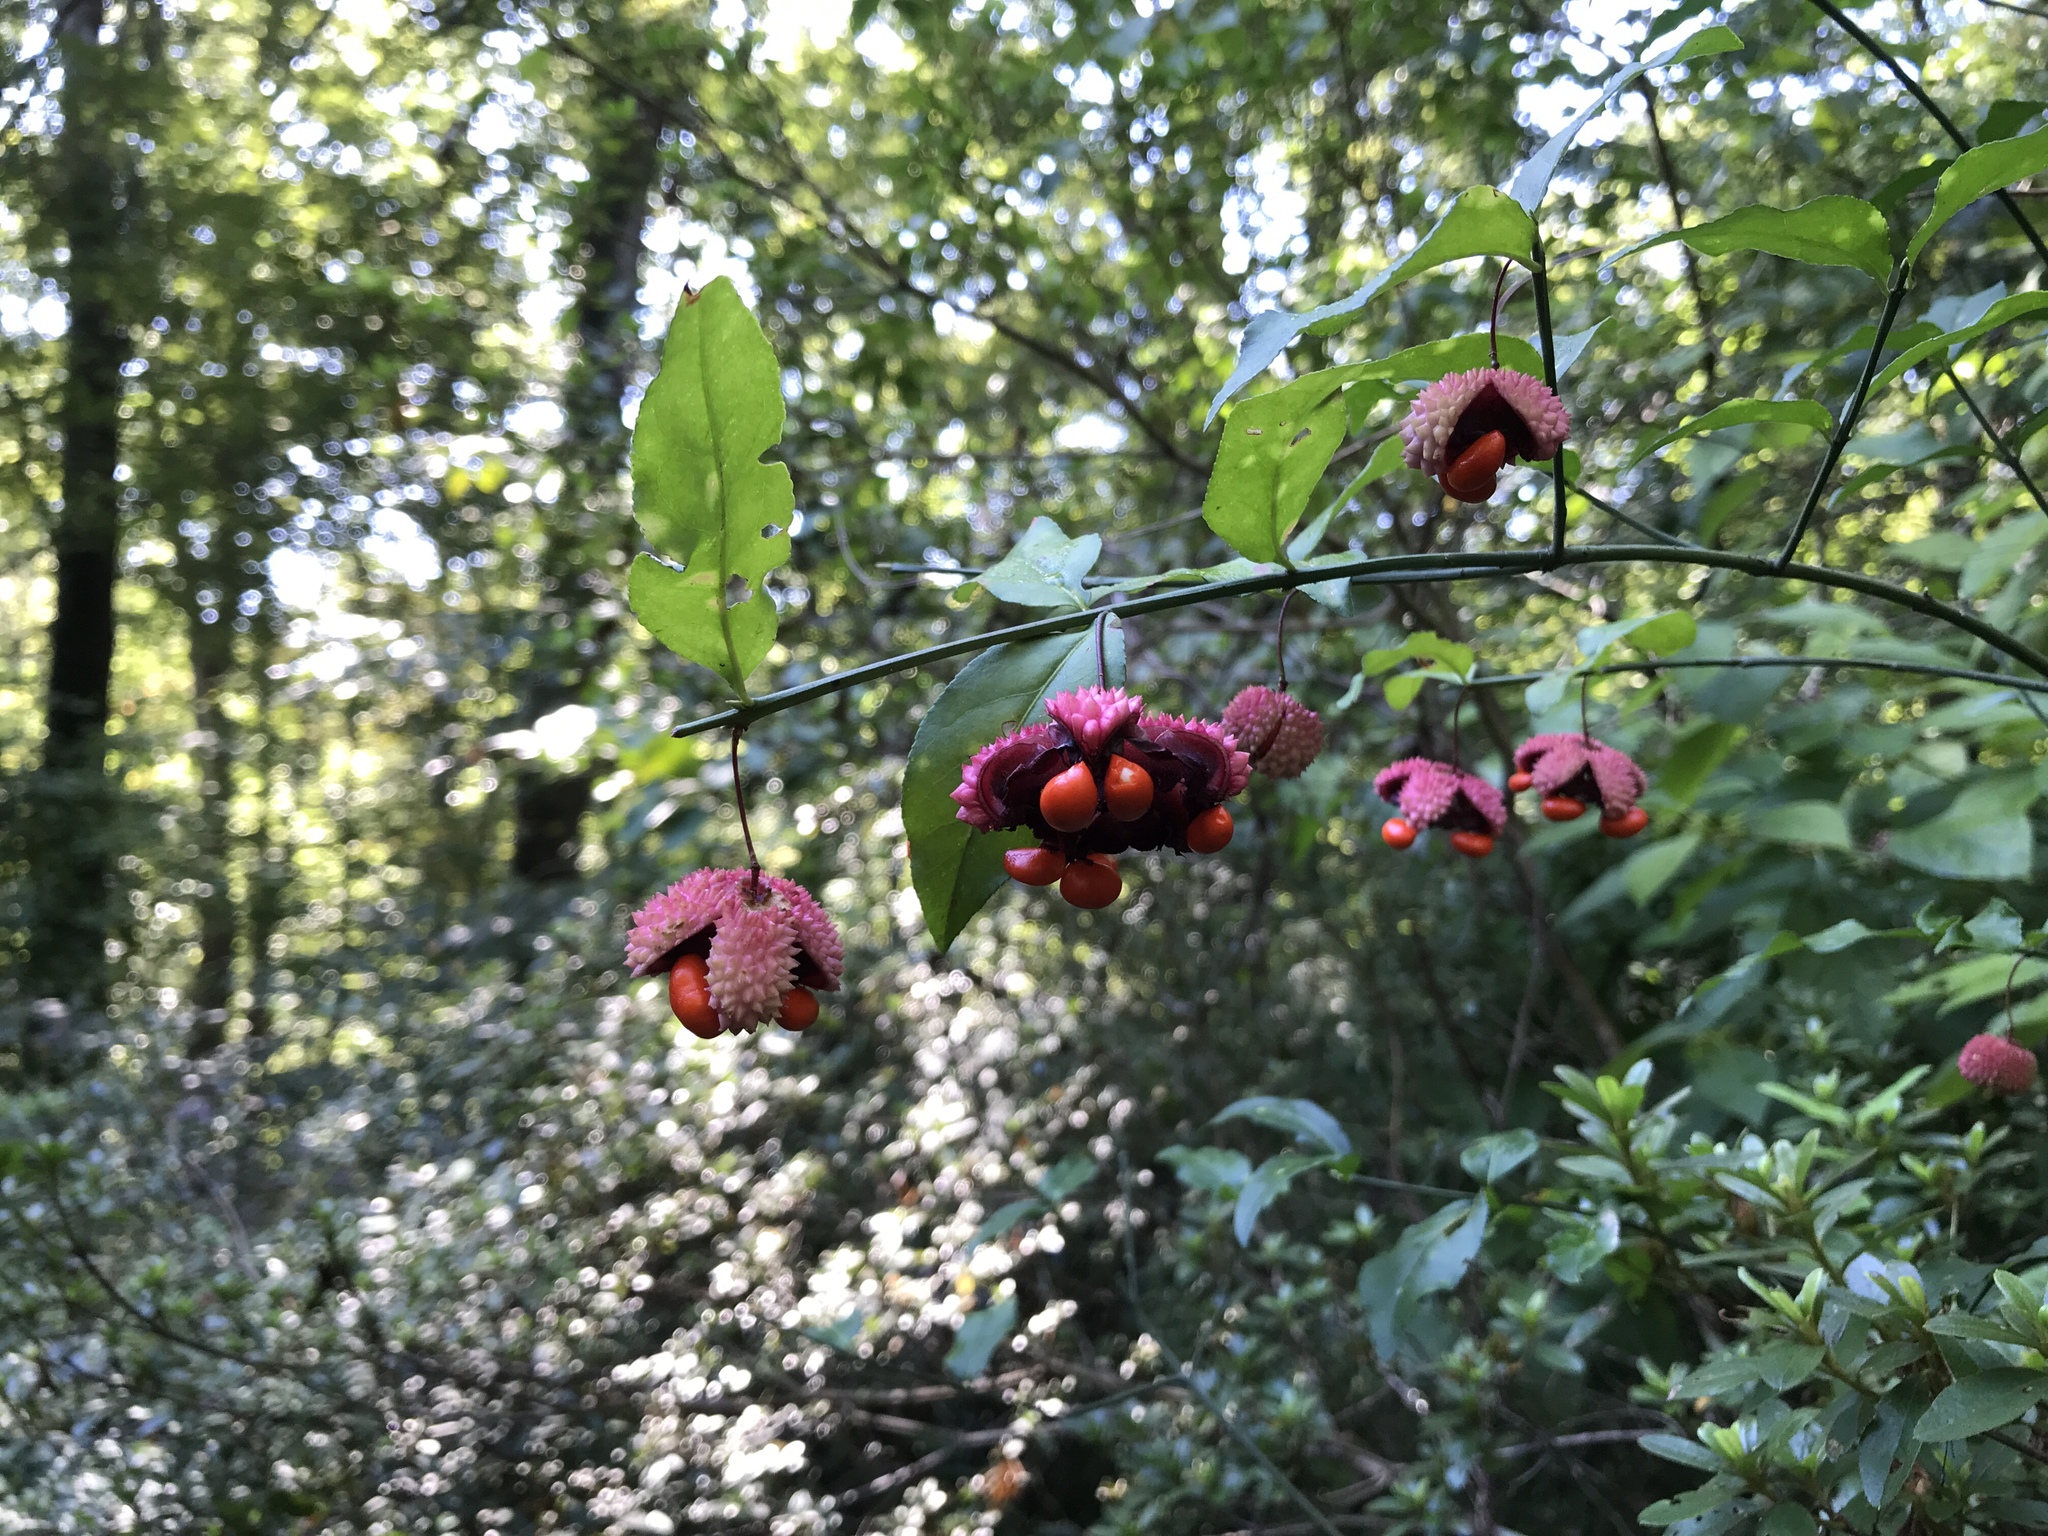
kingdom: Plantae
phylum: Tracheophyta
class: Magnoliopsida
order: Celastrales
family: Celastraceae
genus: Euonymus
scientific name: Euonymus americanus
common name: Bursting-heart
